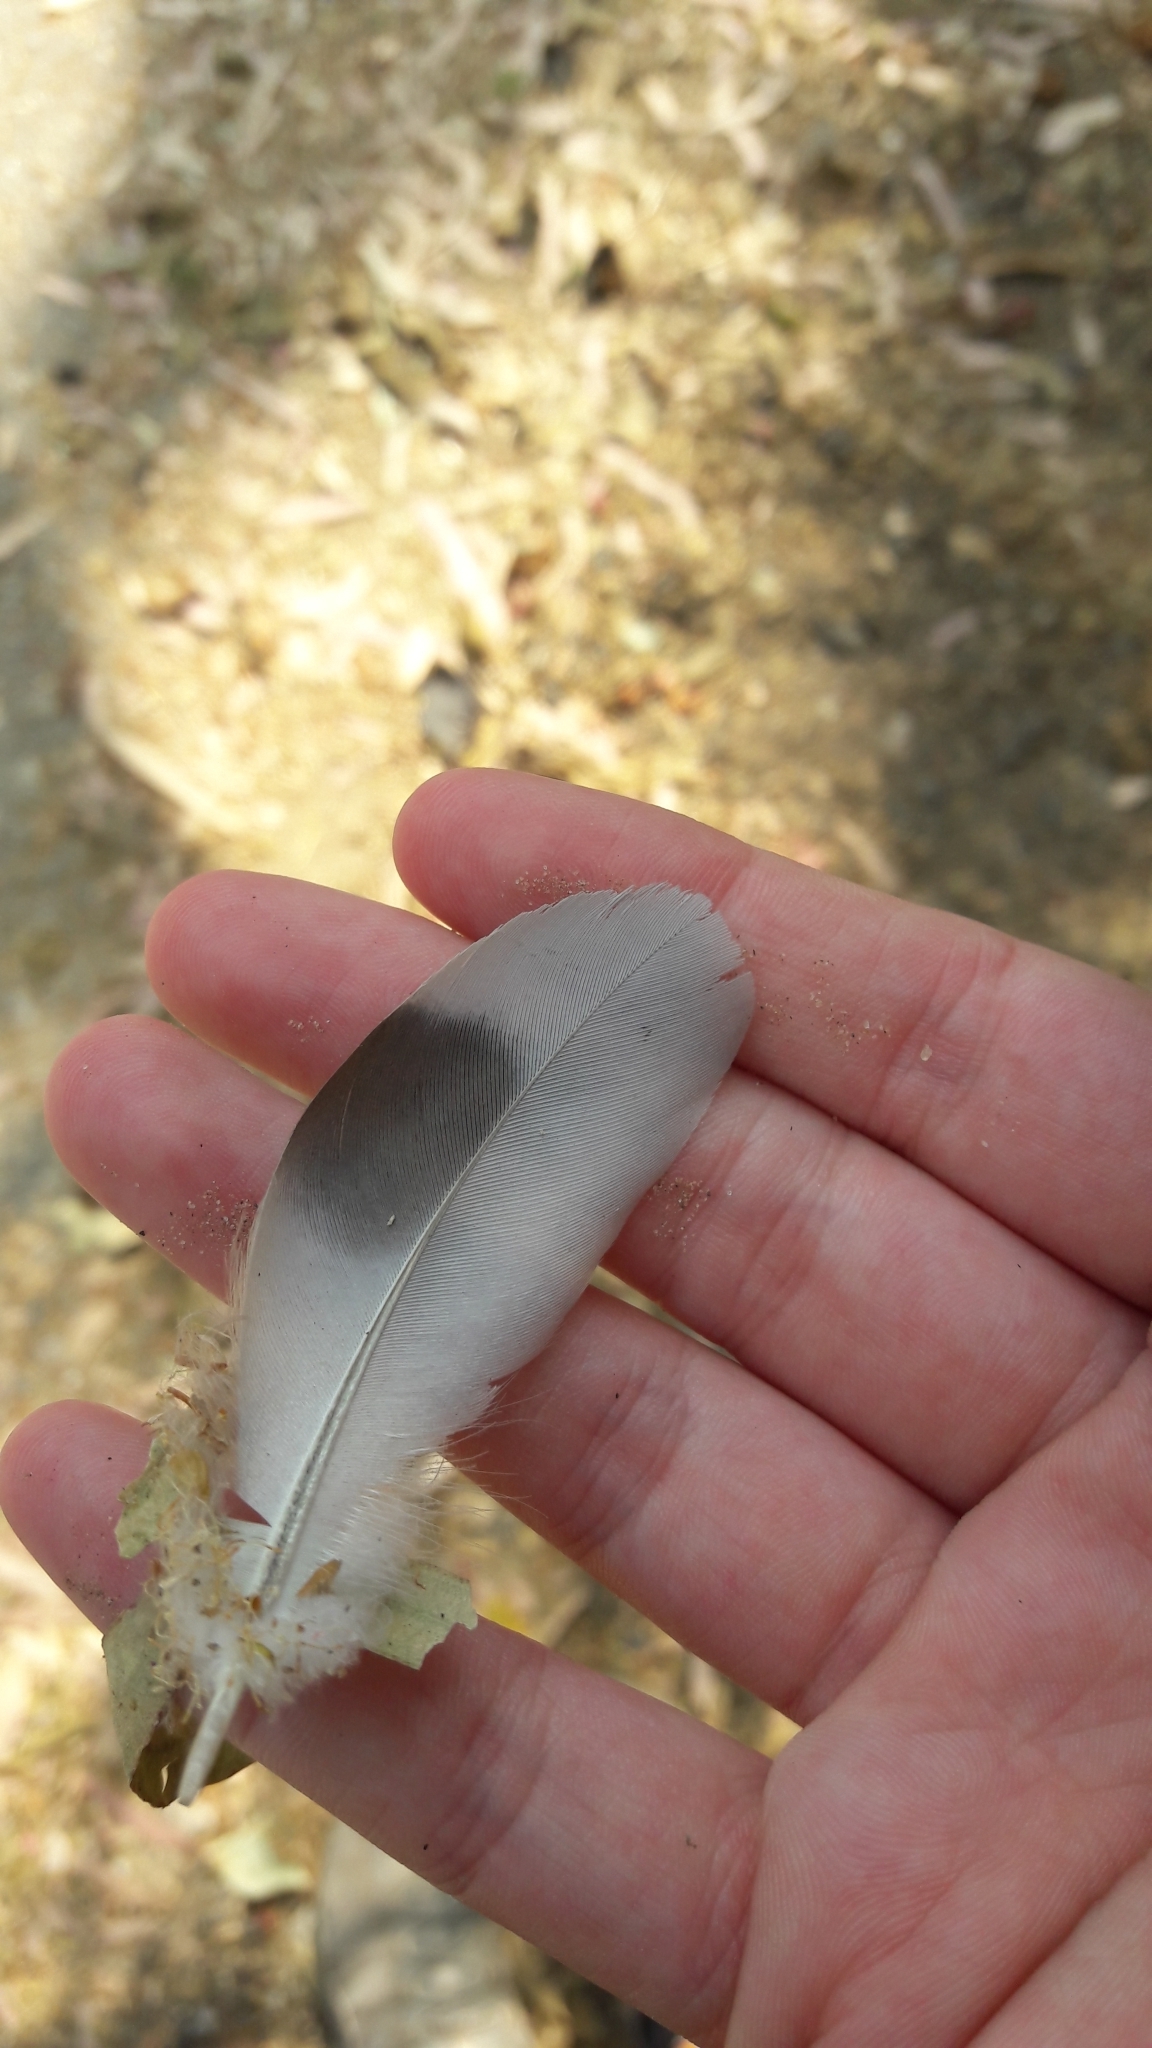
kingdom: Animalia
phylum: Chordata
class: Aves
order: Columbiformes
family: Columbidae
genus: Columba
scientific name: Columba livia
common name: Rock pigeon
